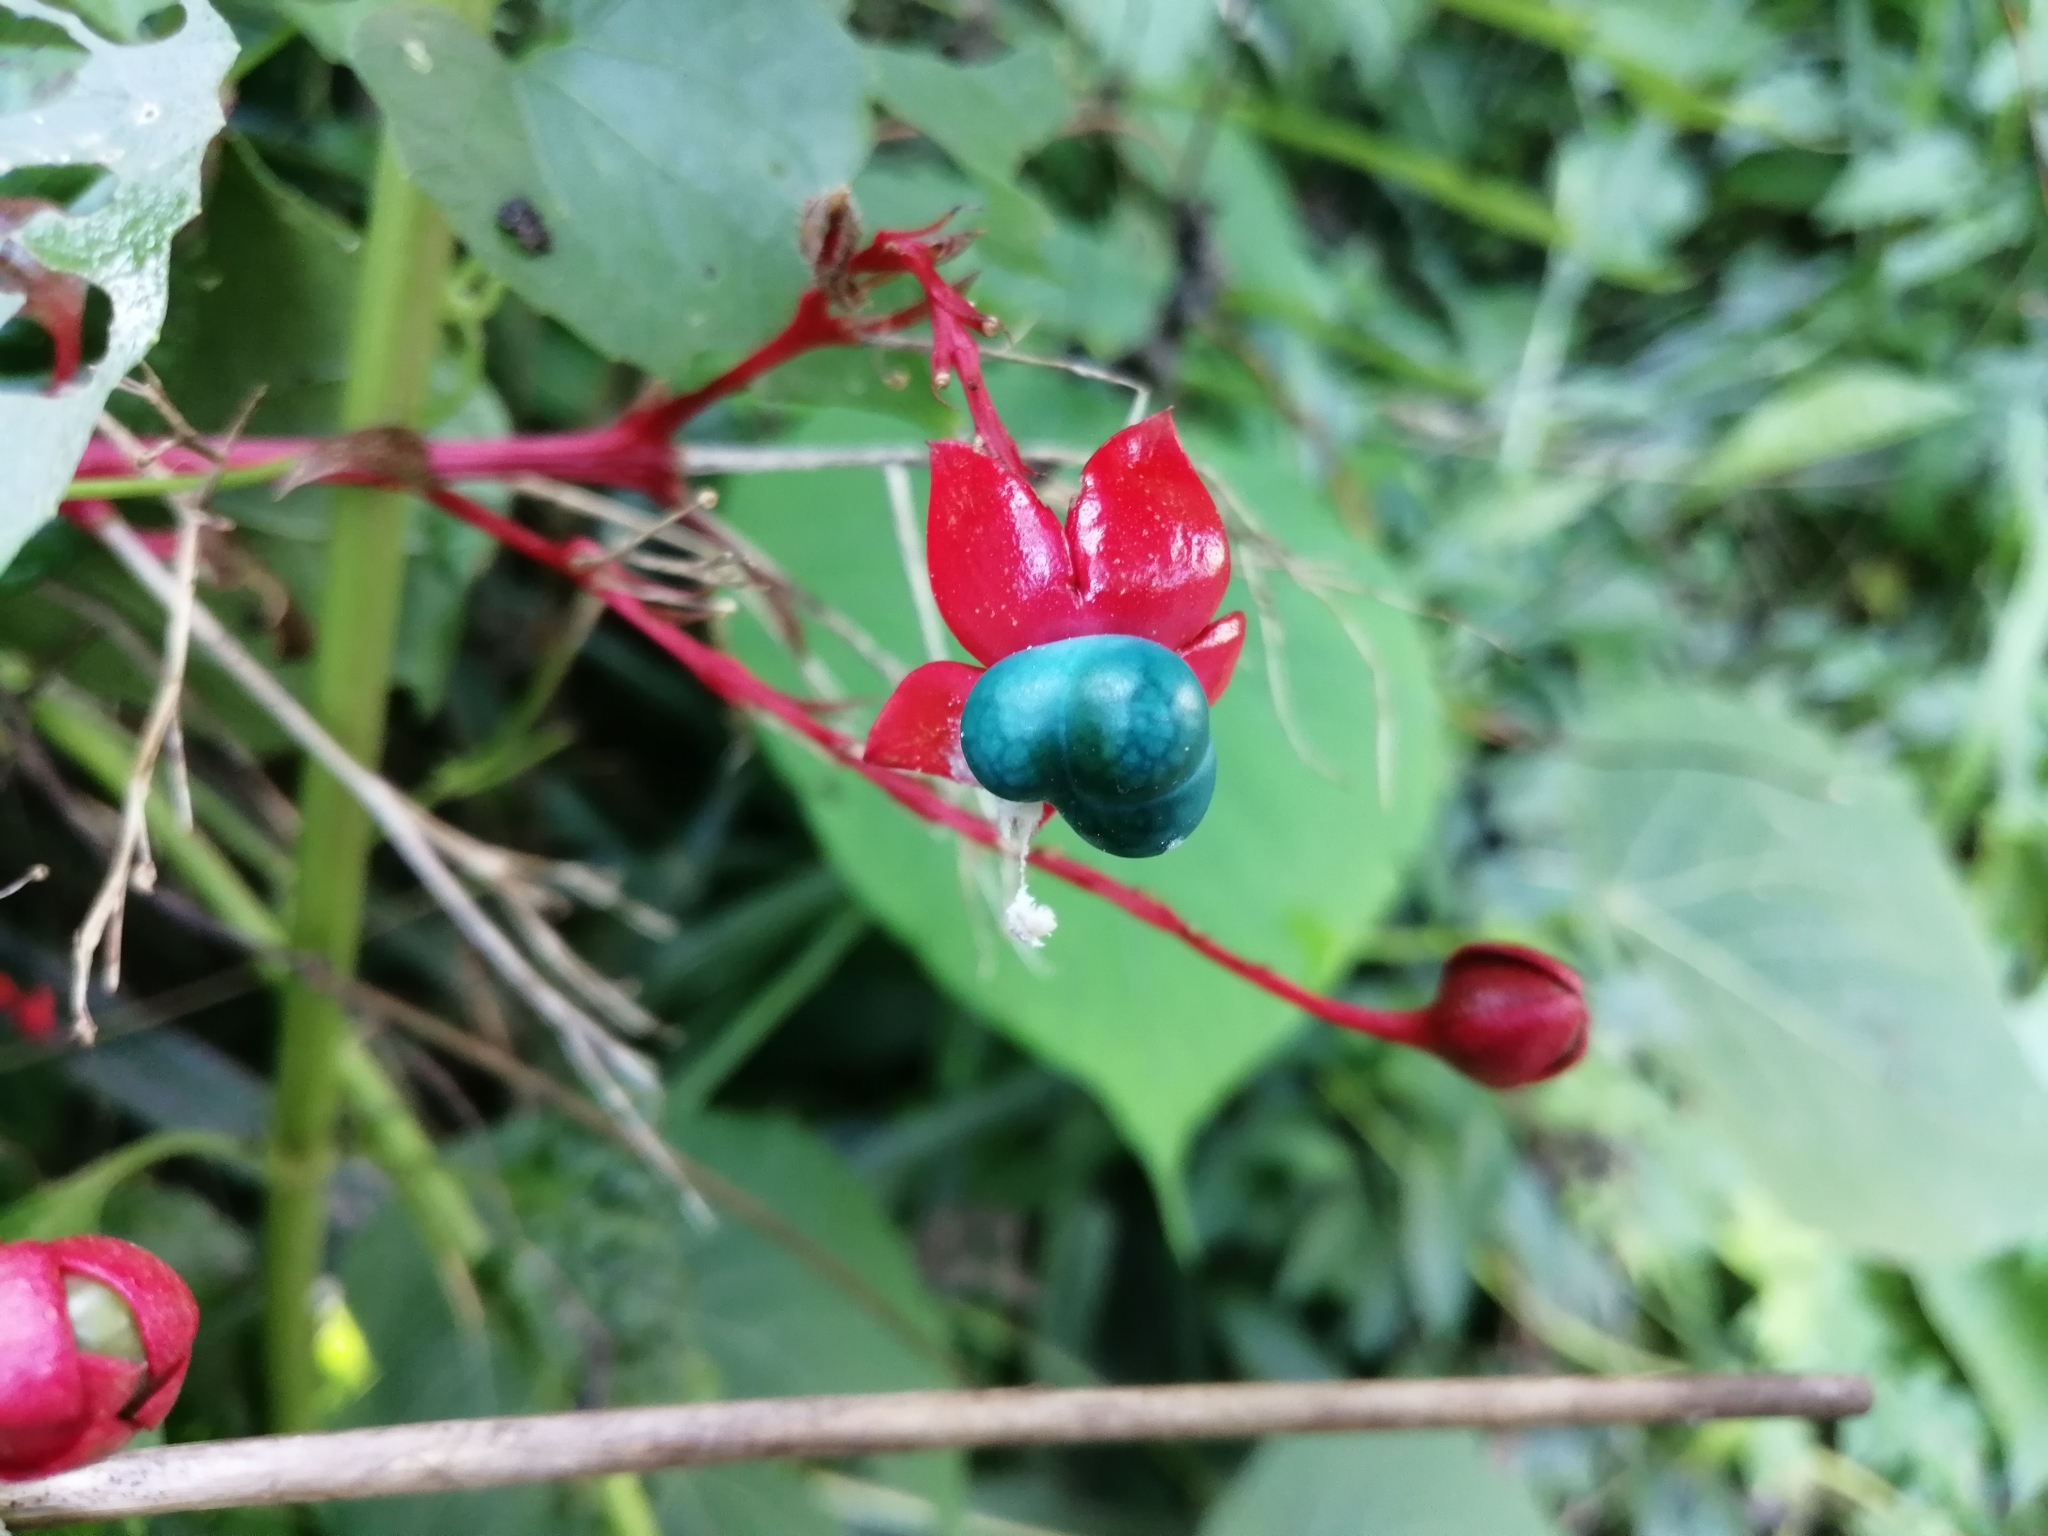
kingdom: Plantae
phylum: Tracheophyta
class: Magnoliopsida
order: Lamiales
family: Lamiaceae
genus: Clerodendrum
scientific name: Clerodendrum japonicum
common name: Japanese glorybower
